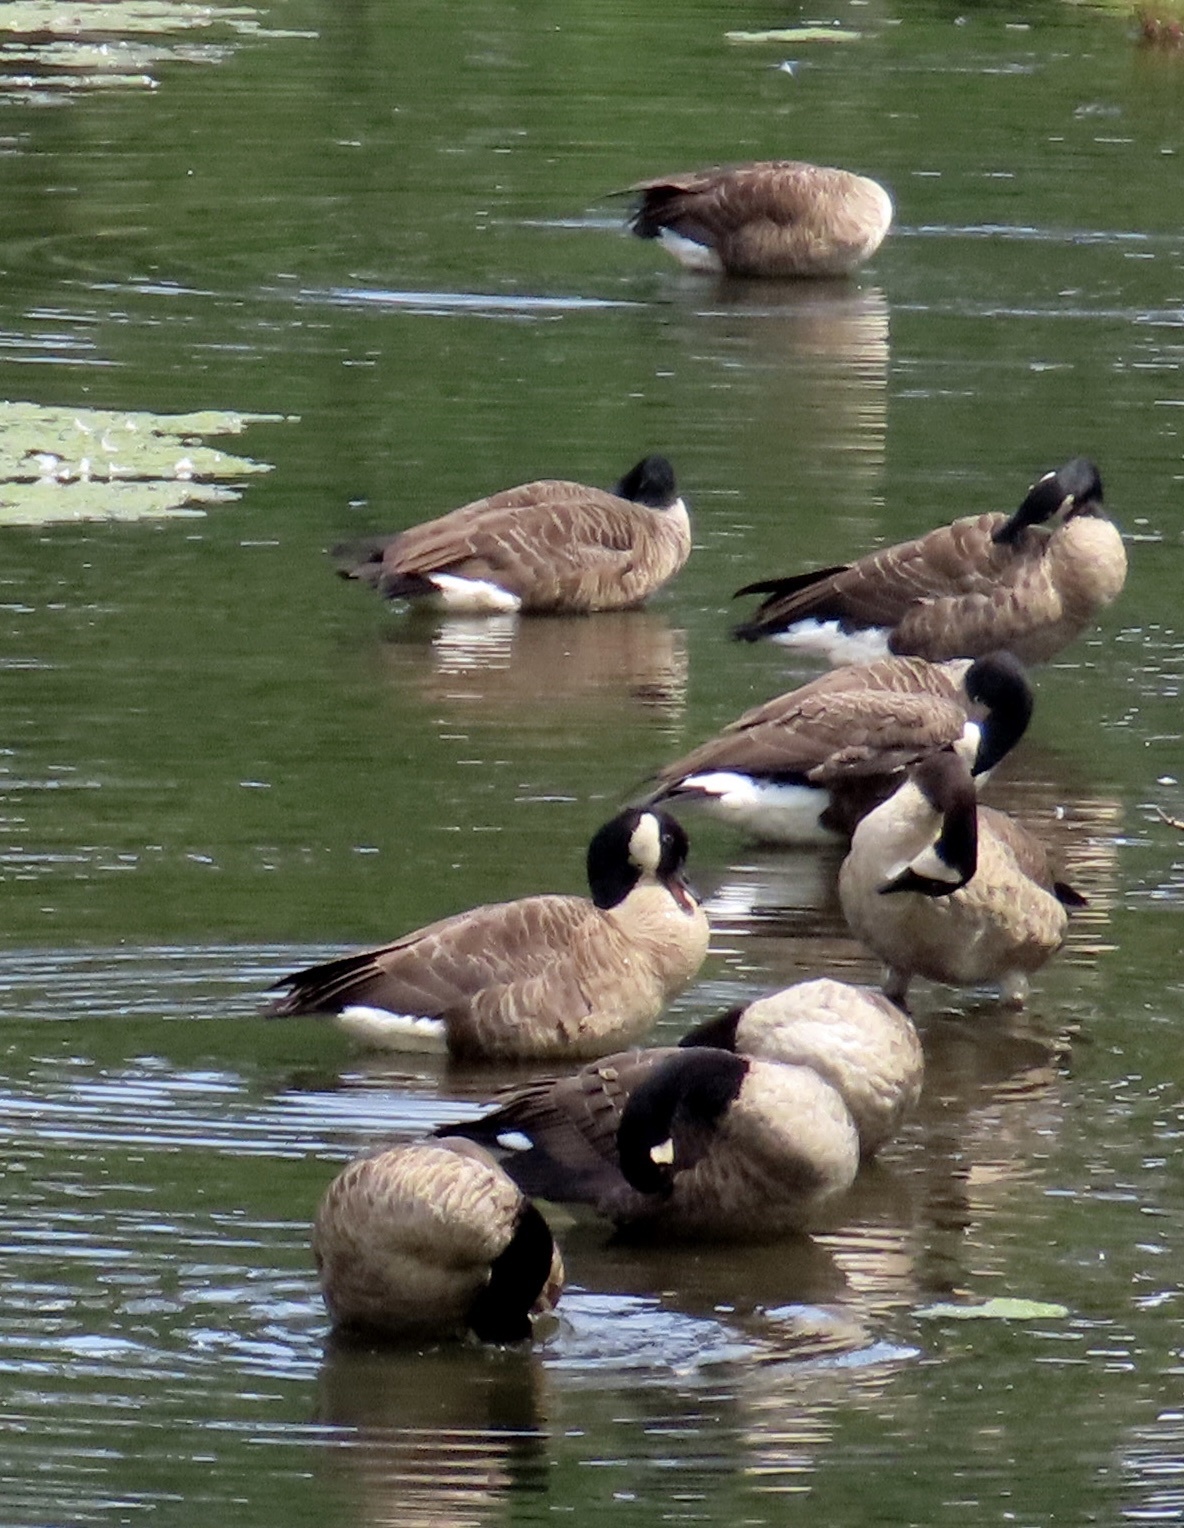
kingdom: Animalia
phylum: Chordata
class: Aves
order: Anseriformes
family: Anatidae
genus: Branta
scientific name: Branta canadensis
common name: Canada goose
